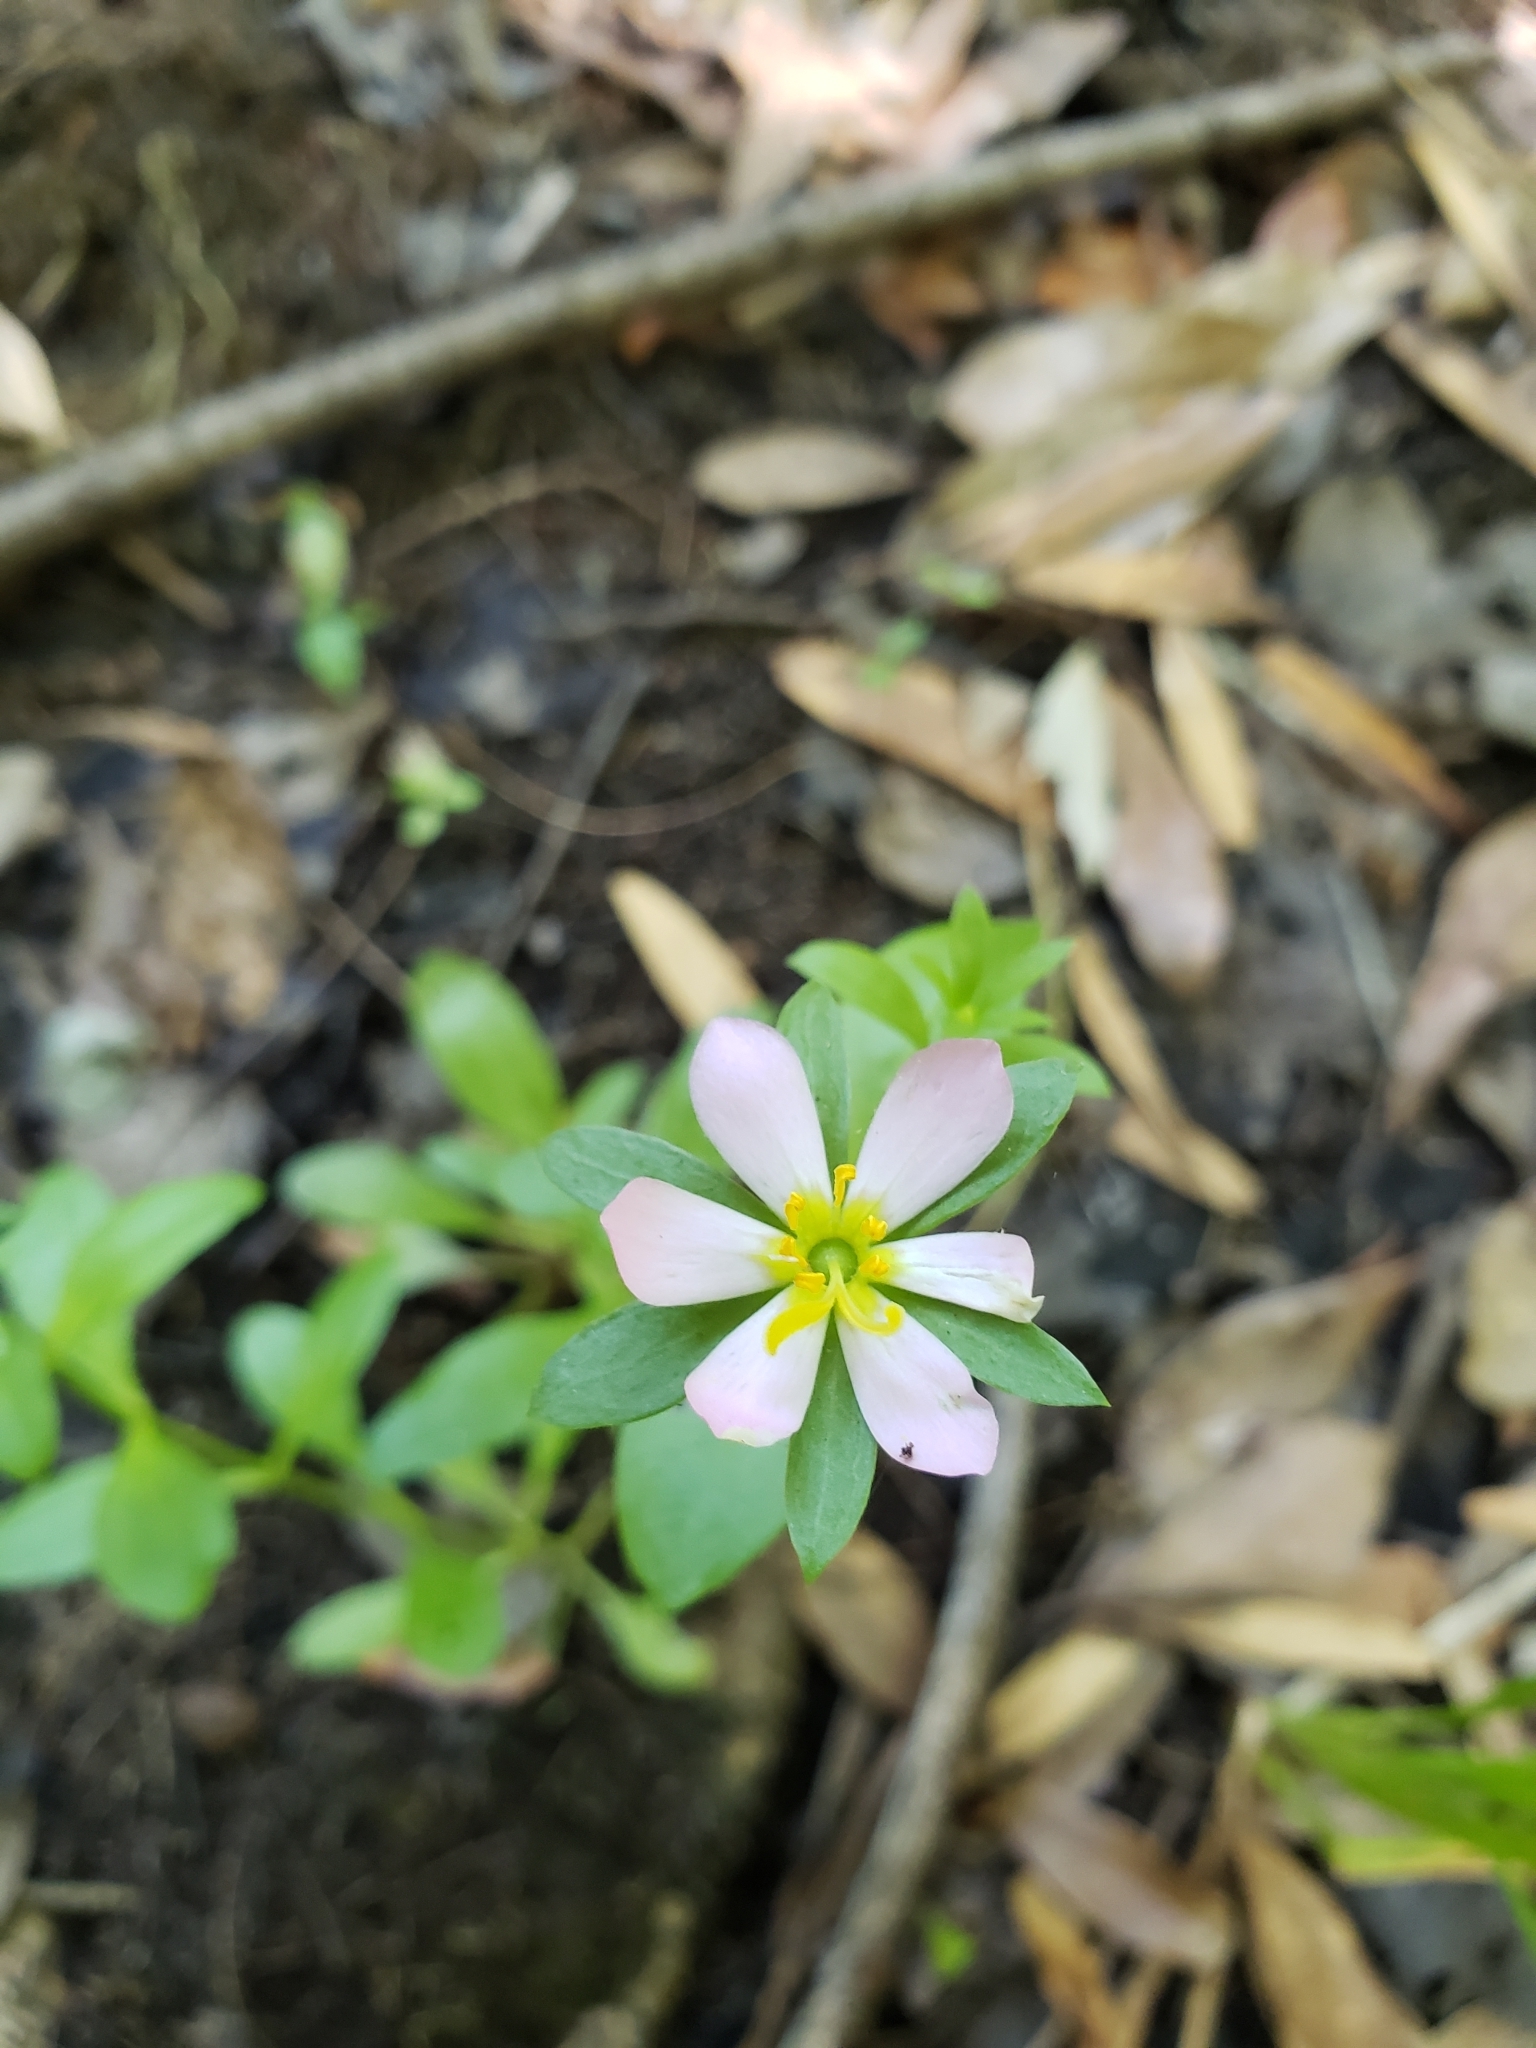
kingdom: Plantae
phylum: Tracheophyta
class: Magnoliopsida
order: Gentianales
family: Gentianaceae
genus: Sabatia
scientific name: Sabatia calycina
